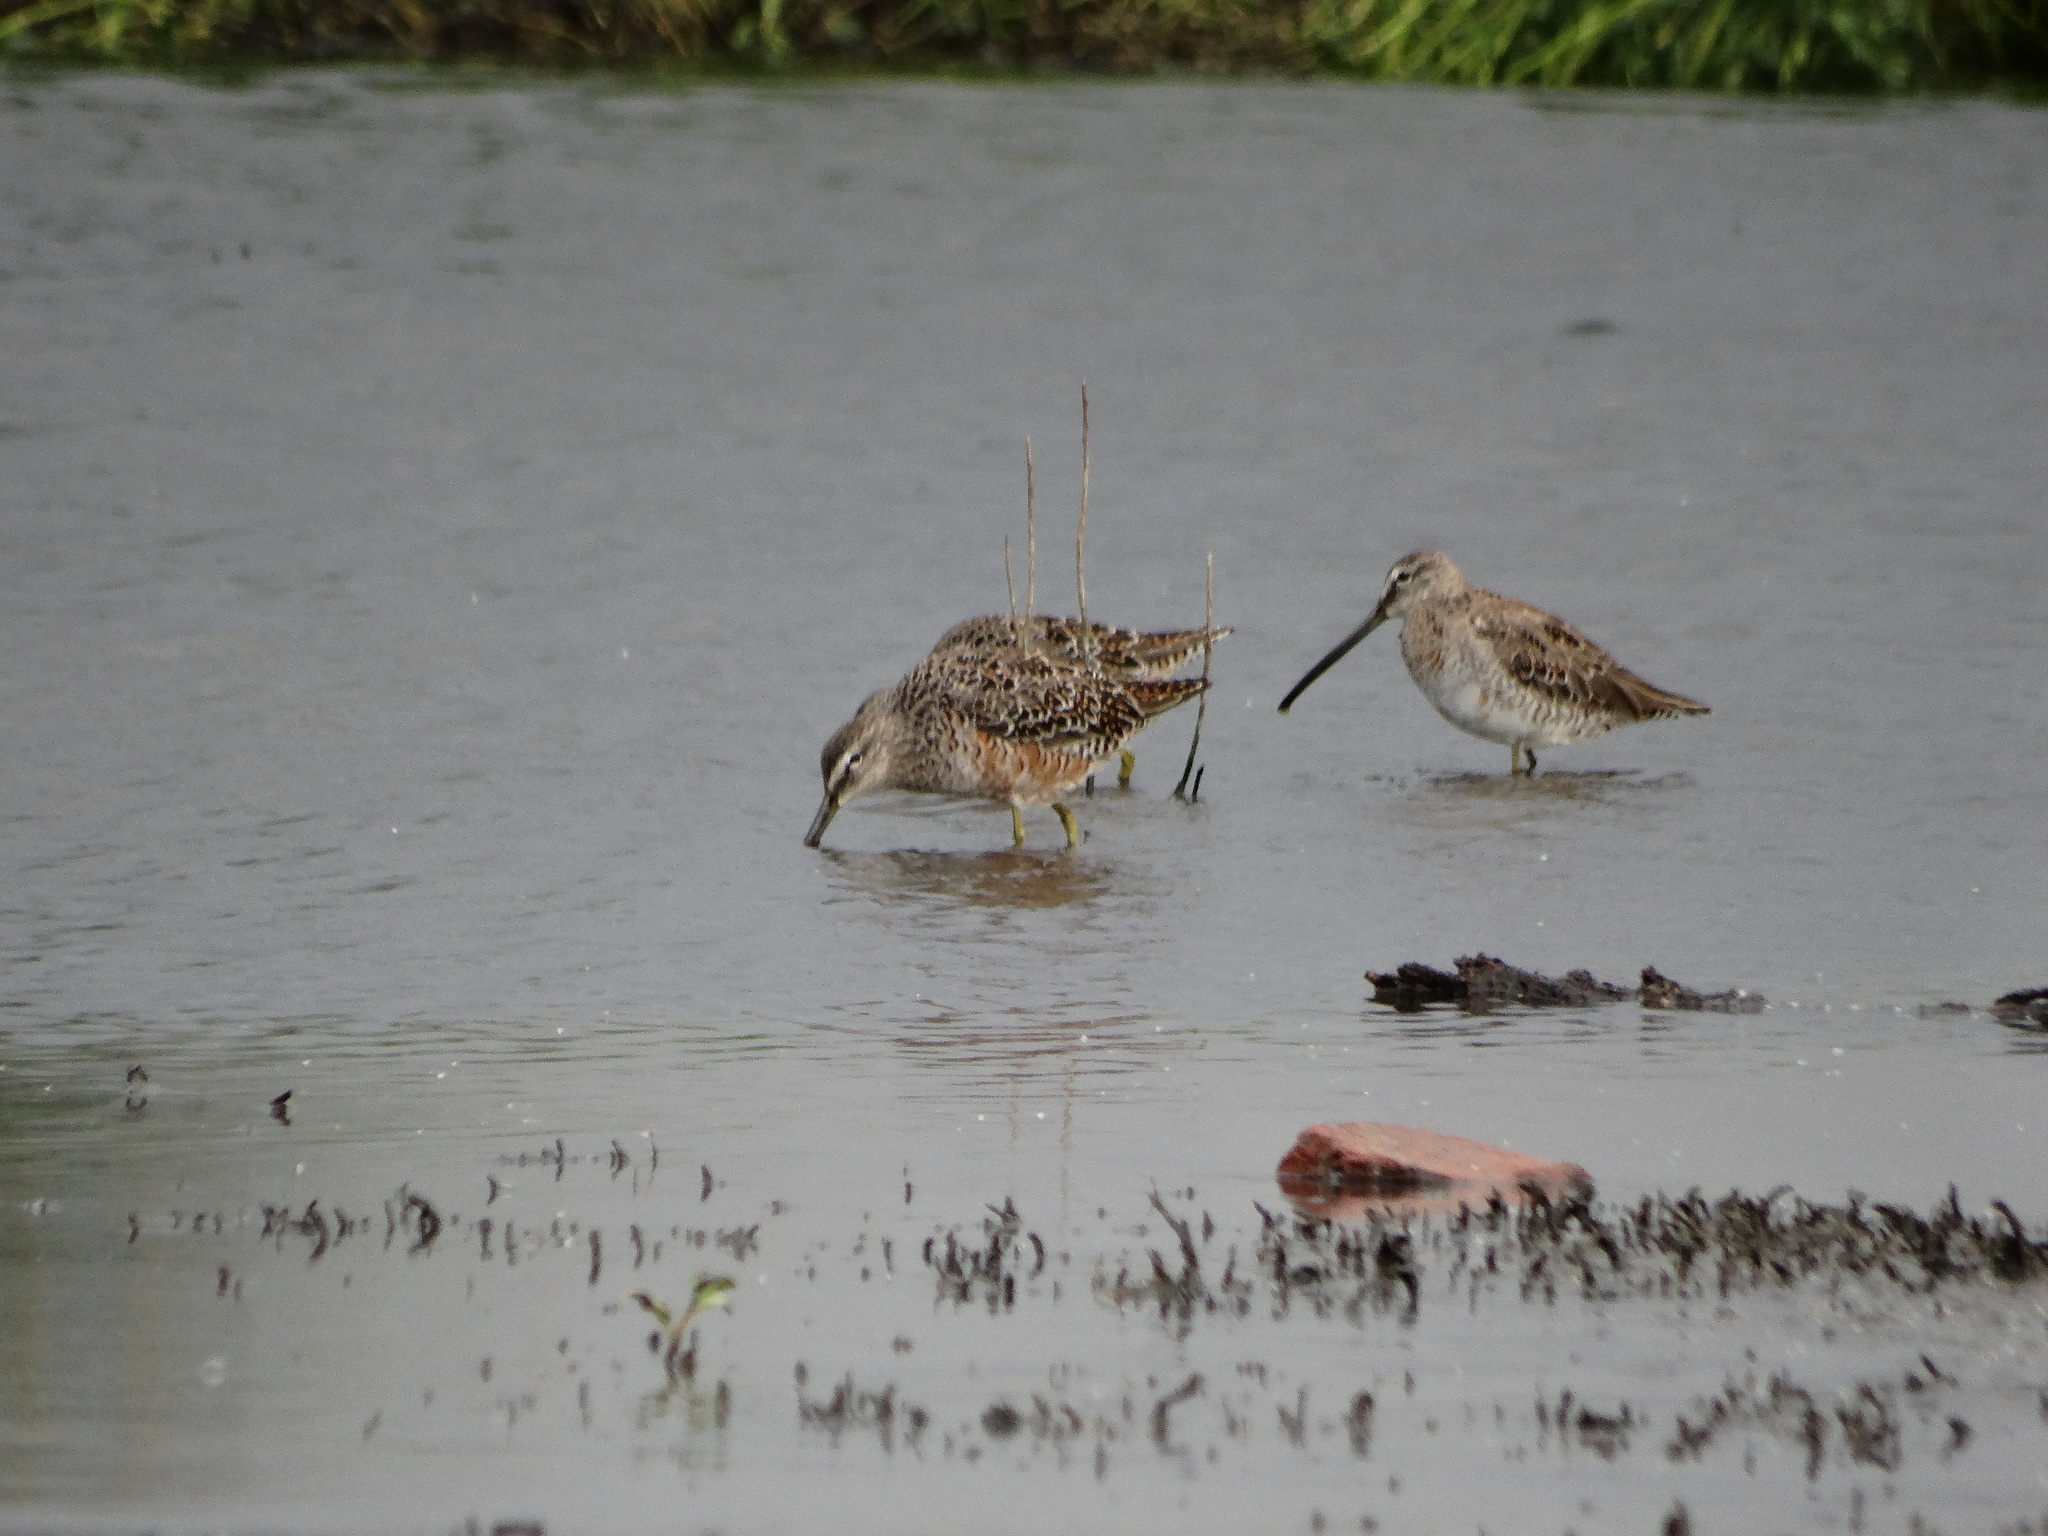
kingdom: Animalia
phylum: Chordata
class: Aves
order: Charadriiformes
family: Scolopacidae
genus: Limnodromus
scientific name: Limnodromus scolopaceus
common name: Long-billed dowitcher
